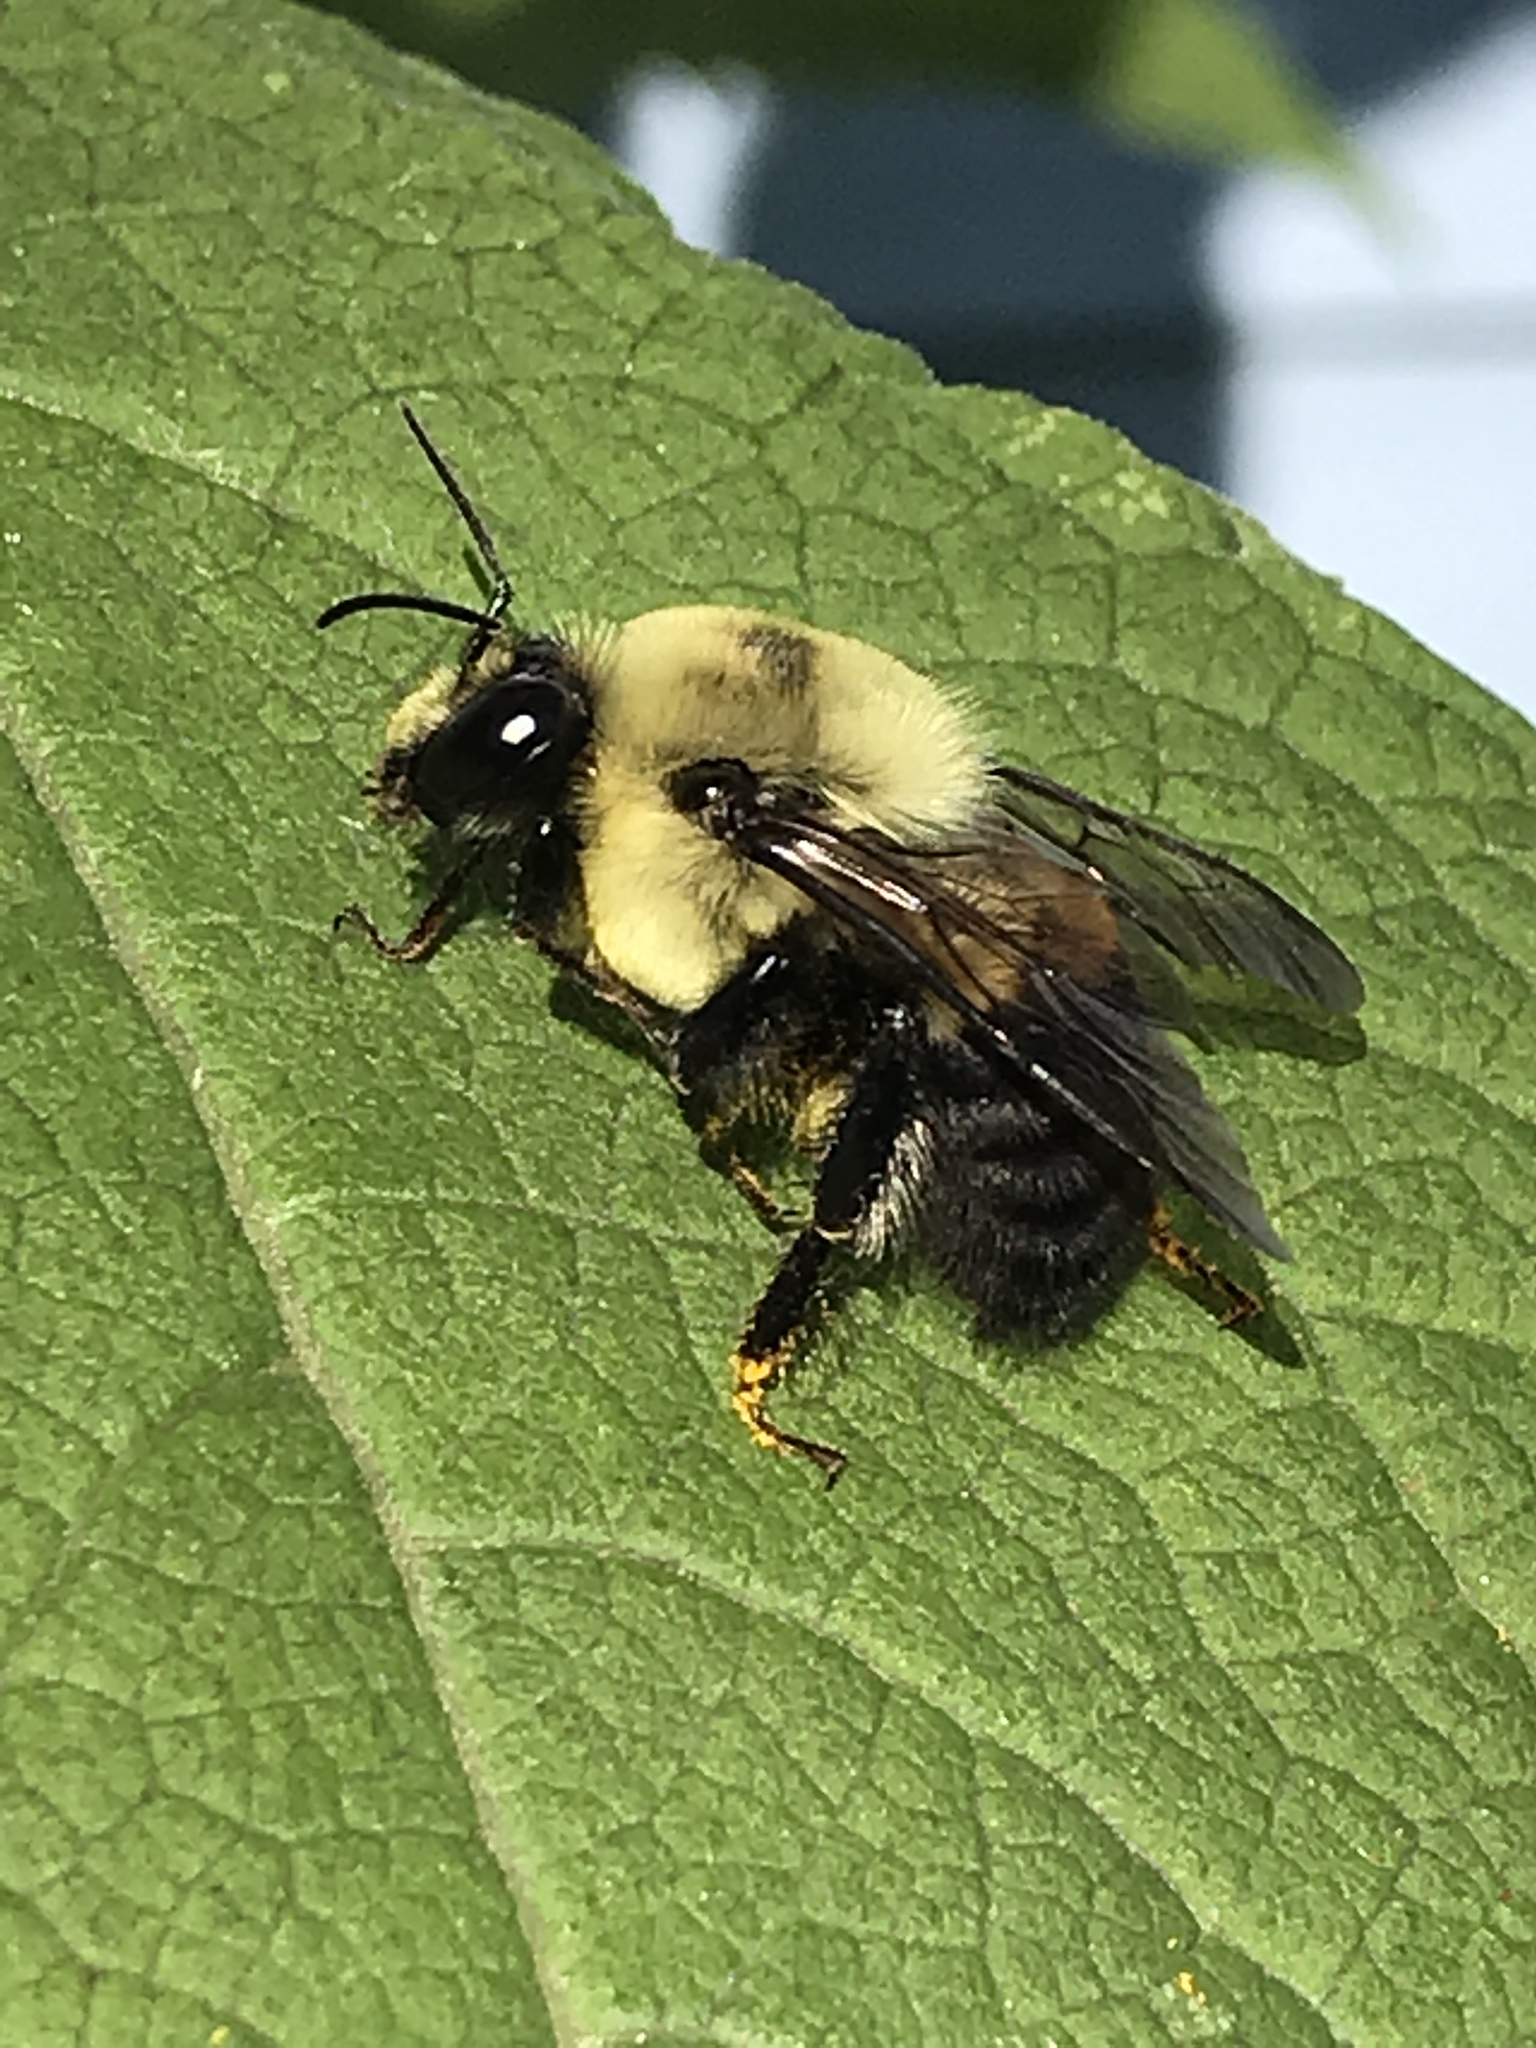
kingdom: Animalia
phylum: Arthropoda
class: Insecta
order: Hymenoptera
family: Apidae
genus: Bombus
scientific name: Bombus griseocollis
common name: Brown-belted bumble bee
